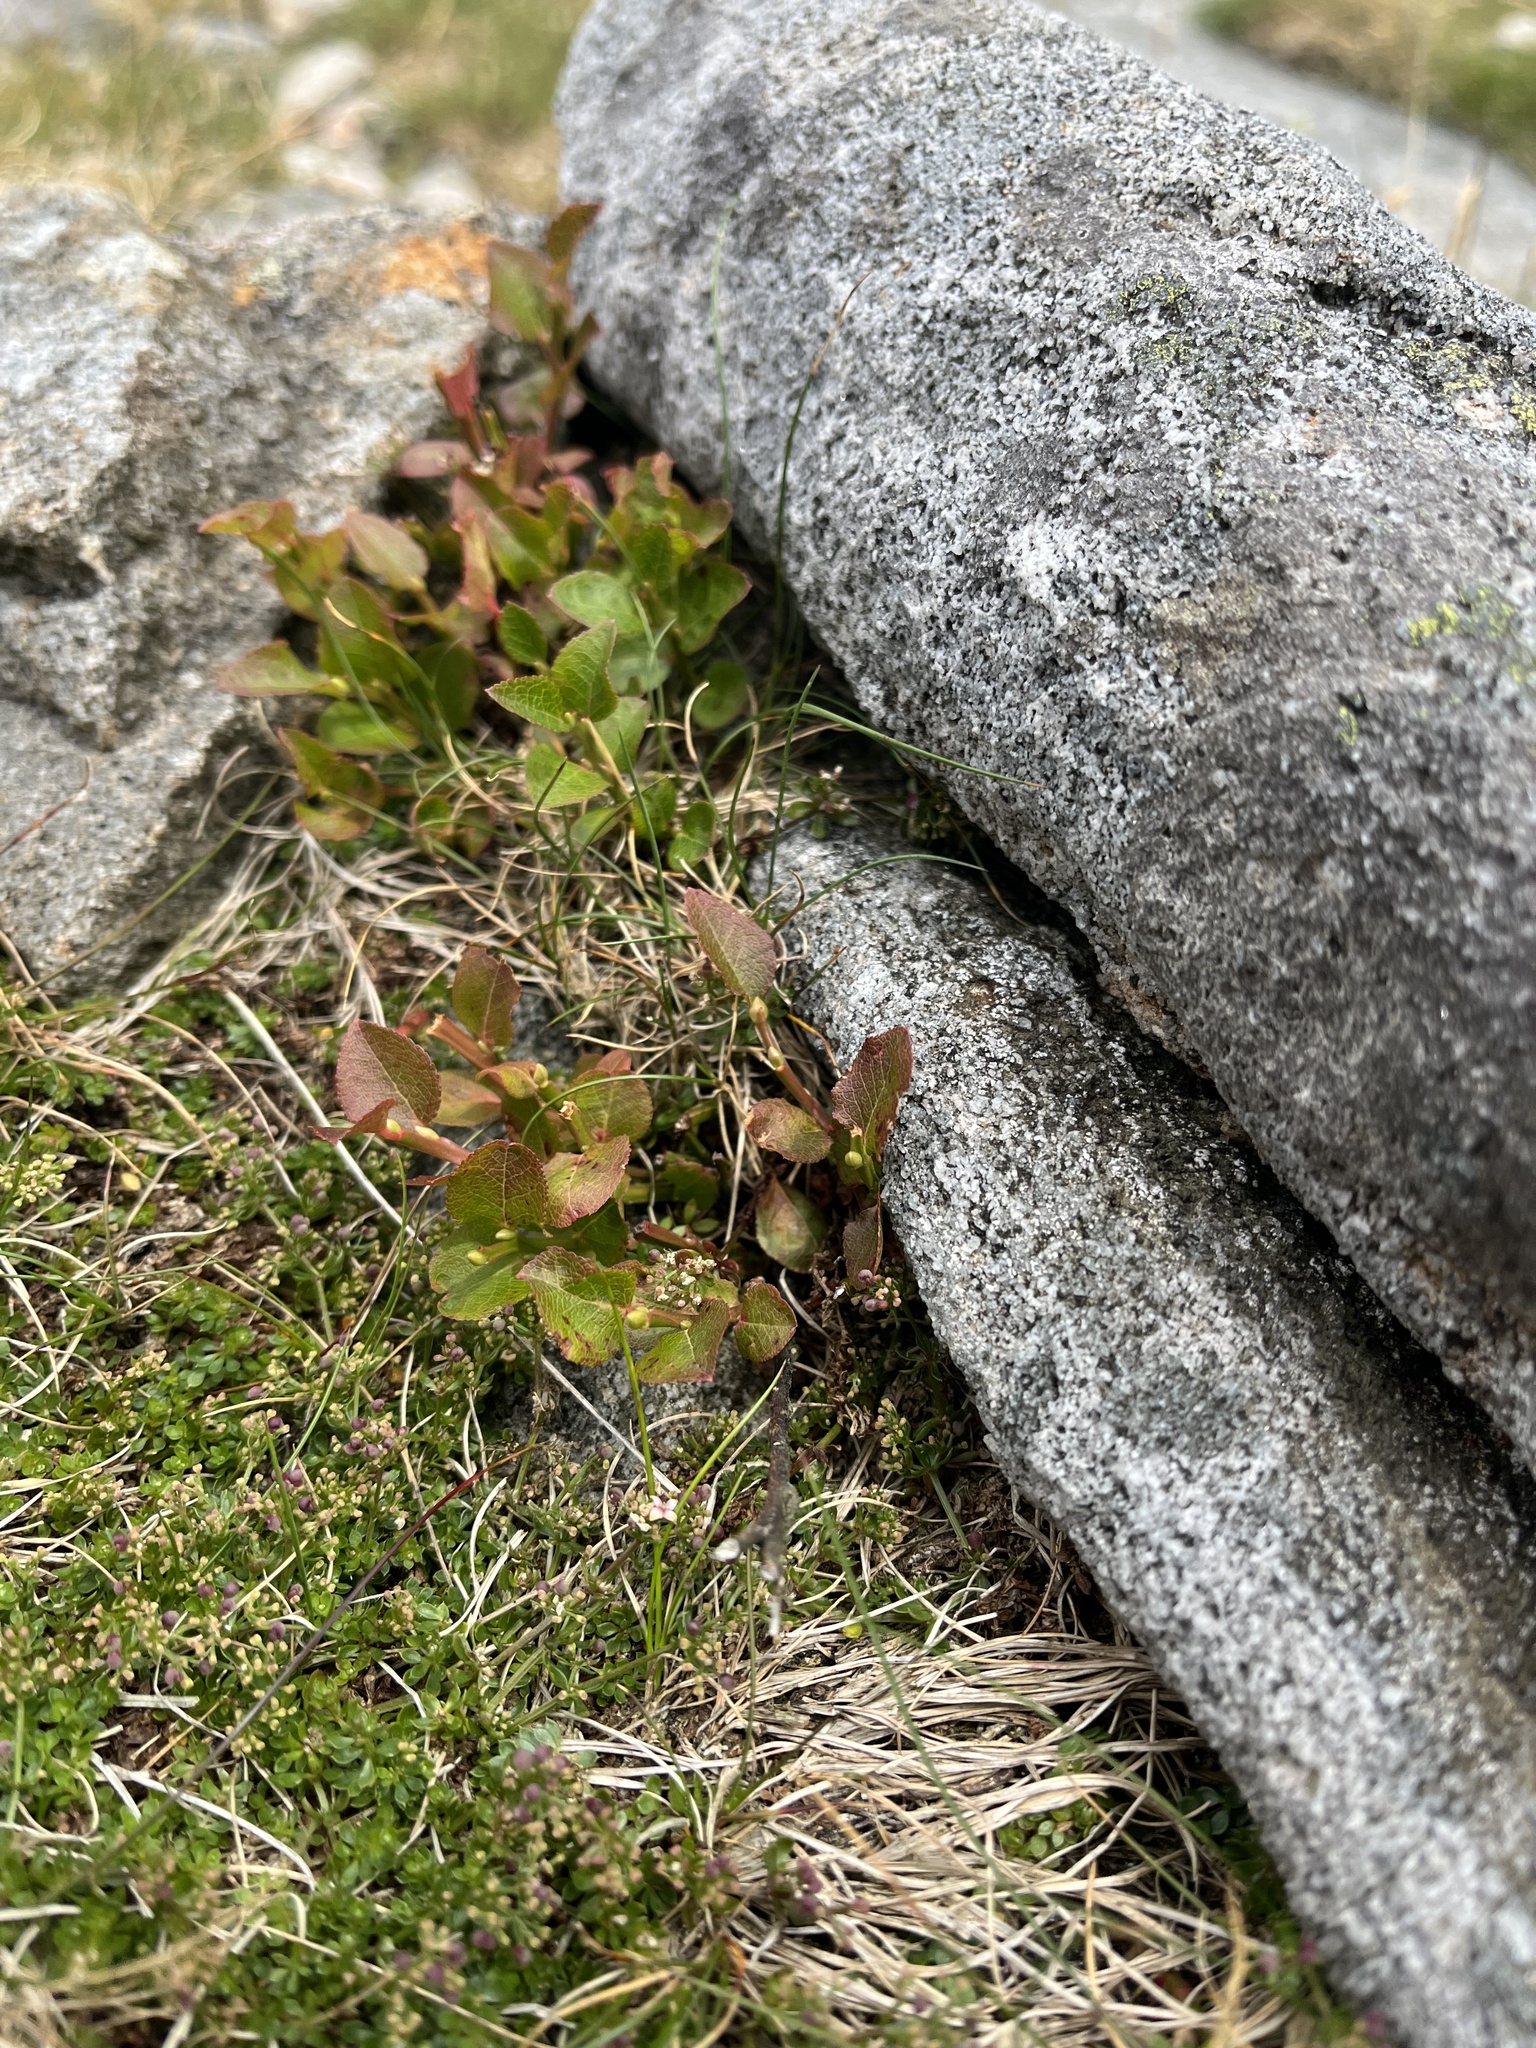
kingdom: Plantae
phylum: Tracheophyta
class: Magnoliopsida
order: Ericales
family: Ericaceae
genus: Vaccinium
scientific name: Vaccinium myrtillus
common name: Bilberry
